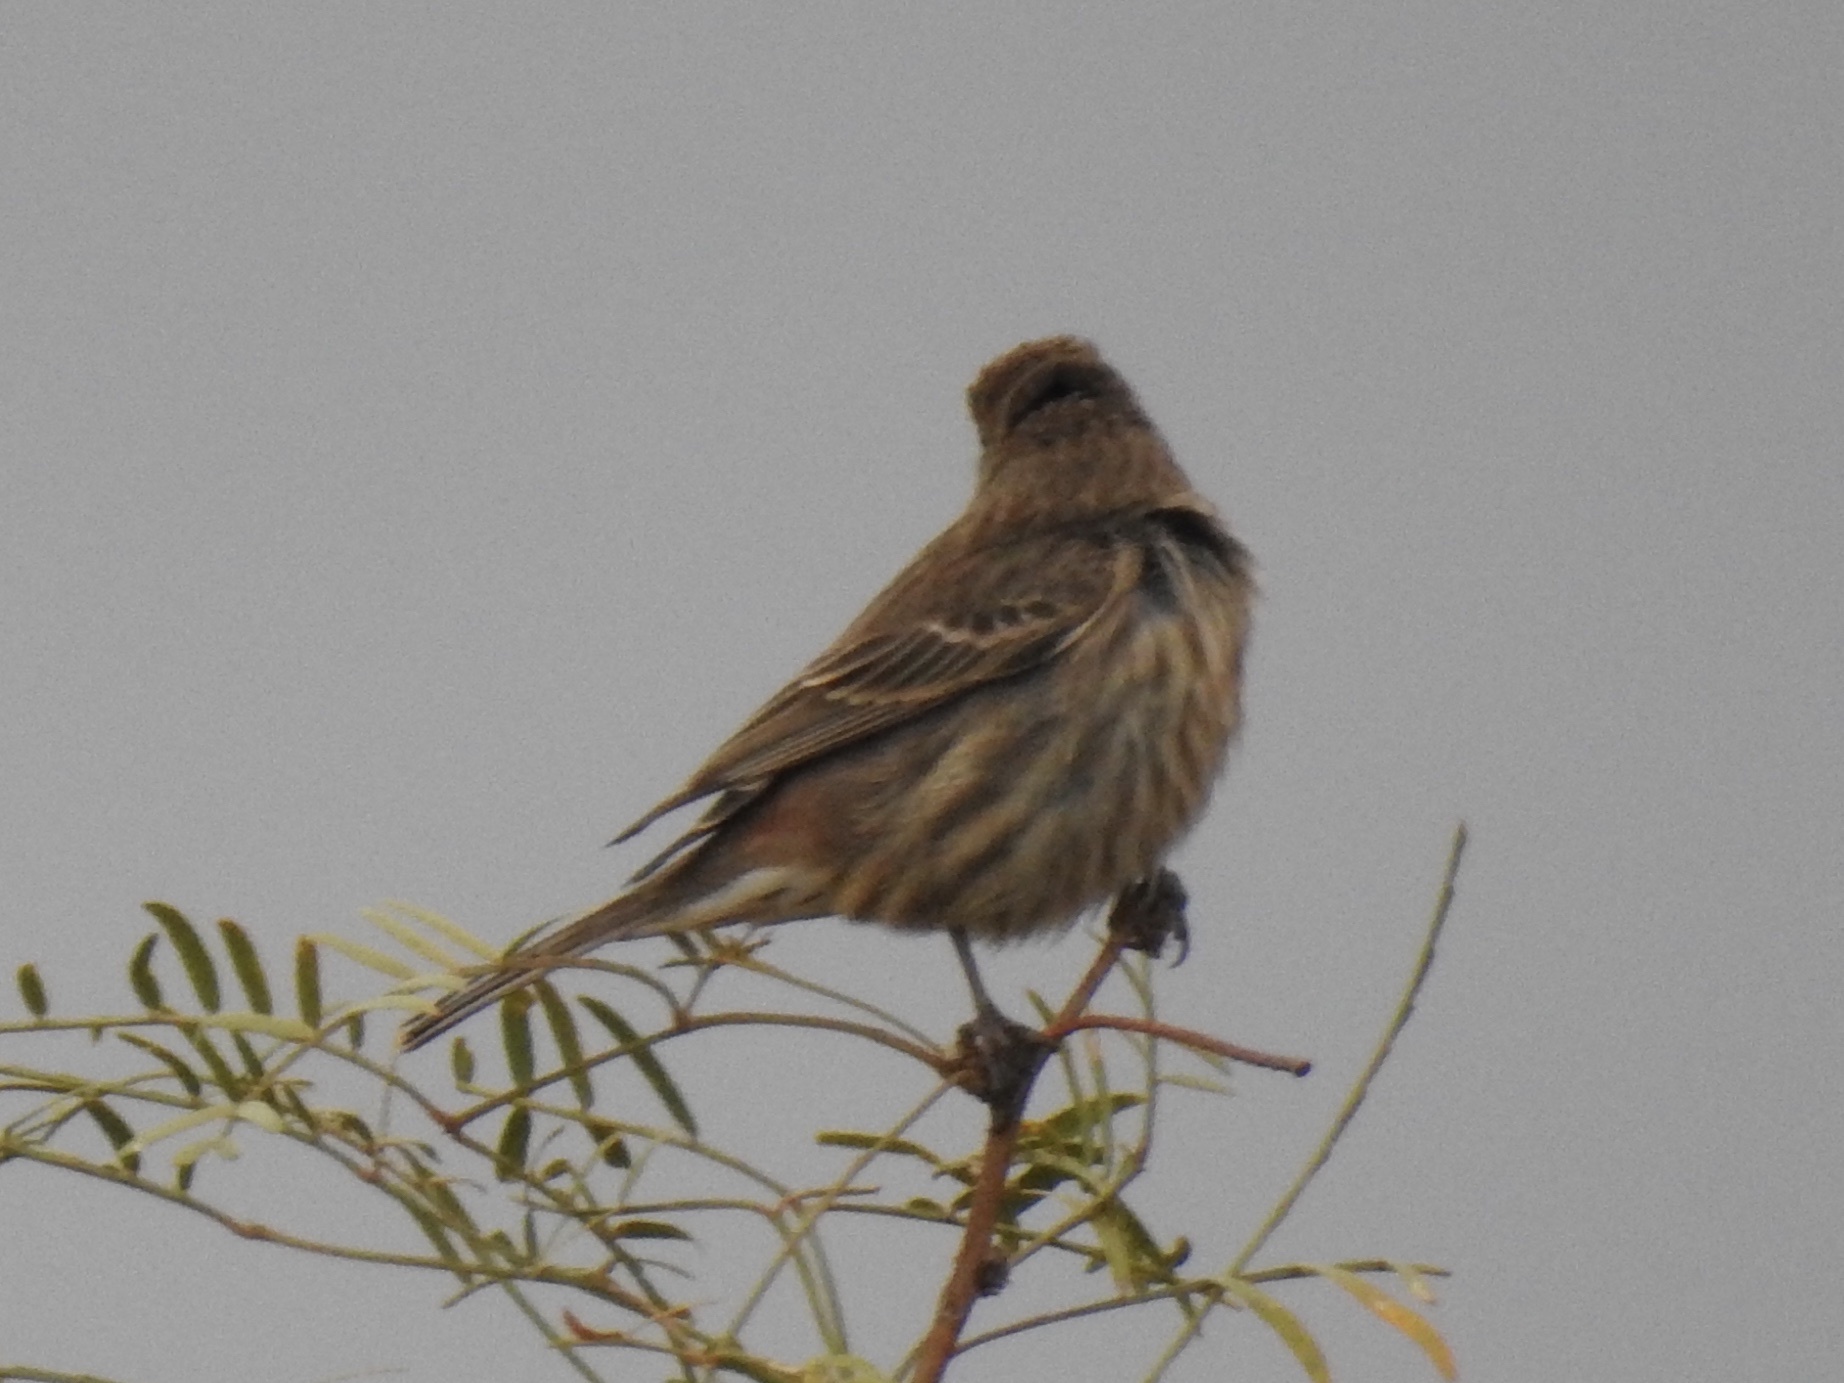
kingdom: Animalia
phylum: Chordata
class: Aves
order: Passeriformes
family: Fringillidae
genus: Haemorhous
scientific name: Haemorhous mexicanus
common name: House finch
